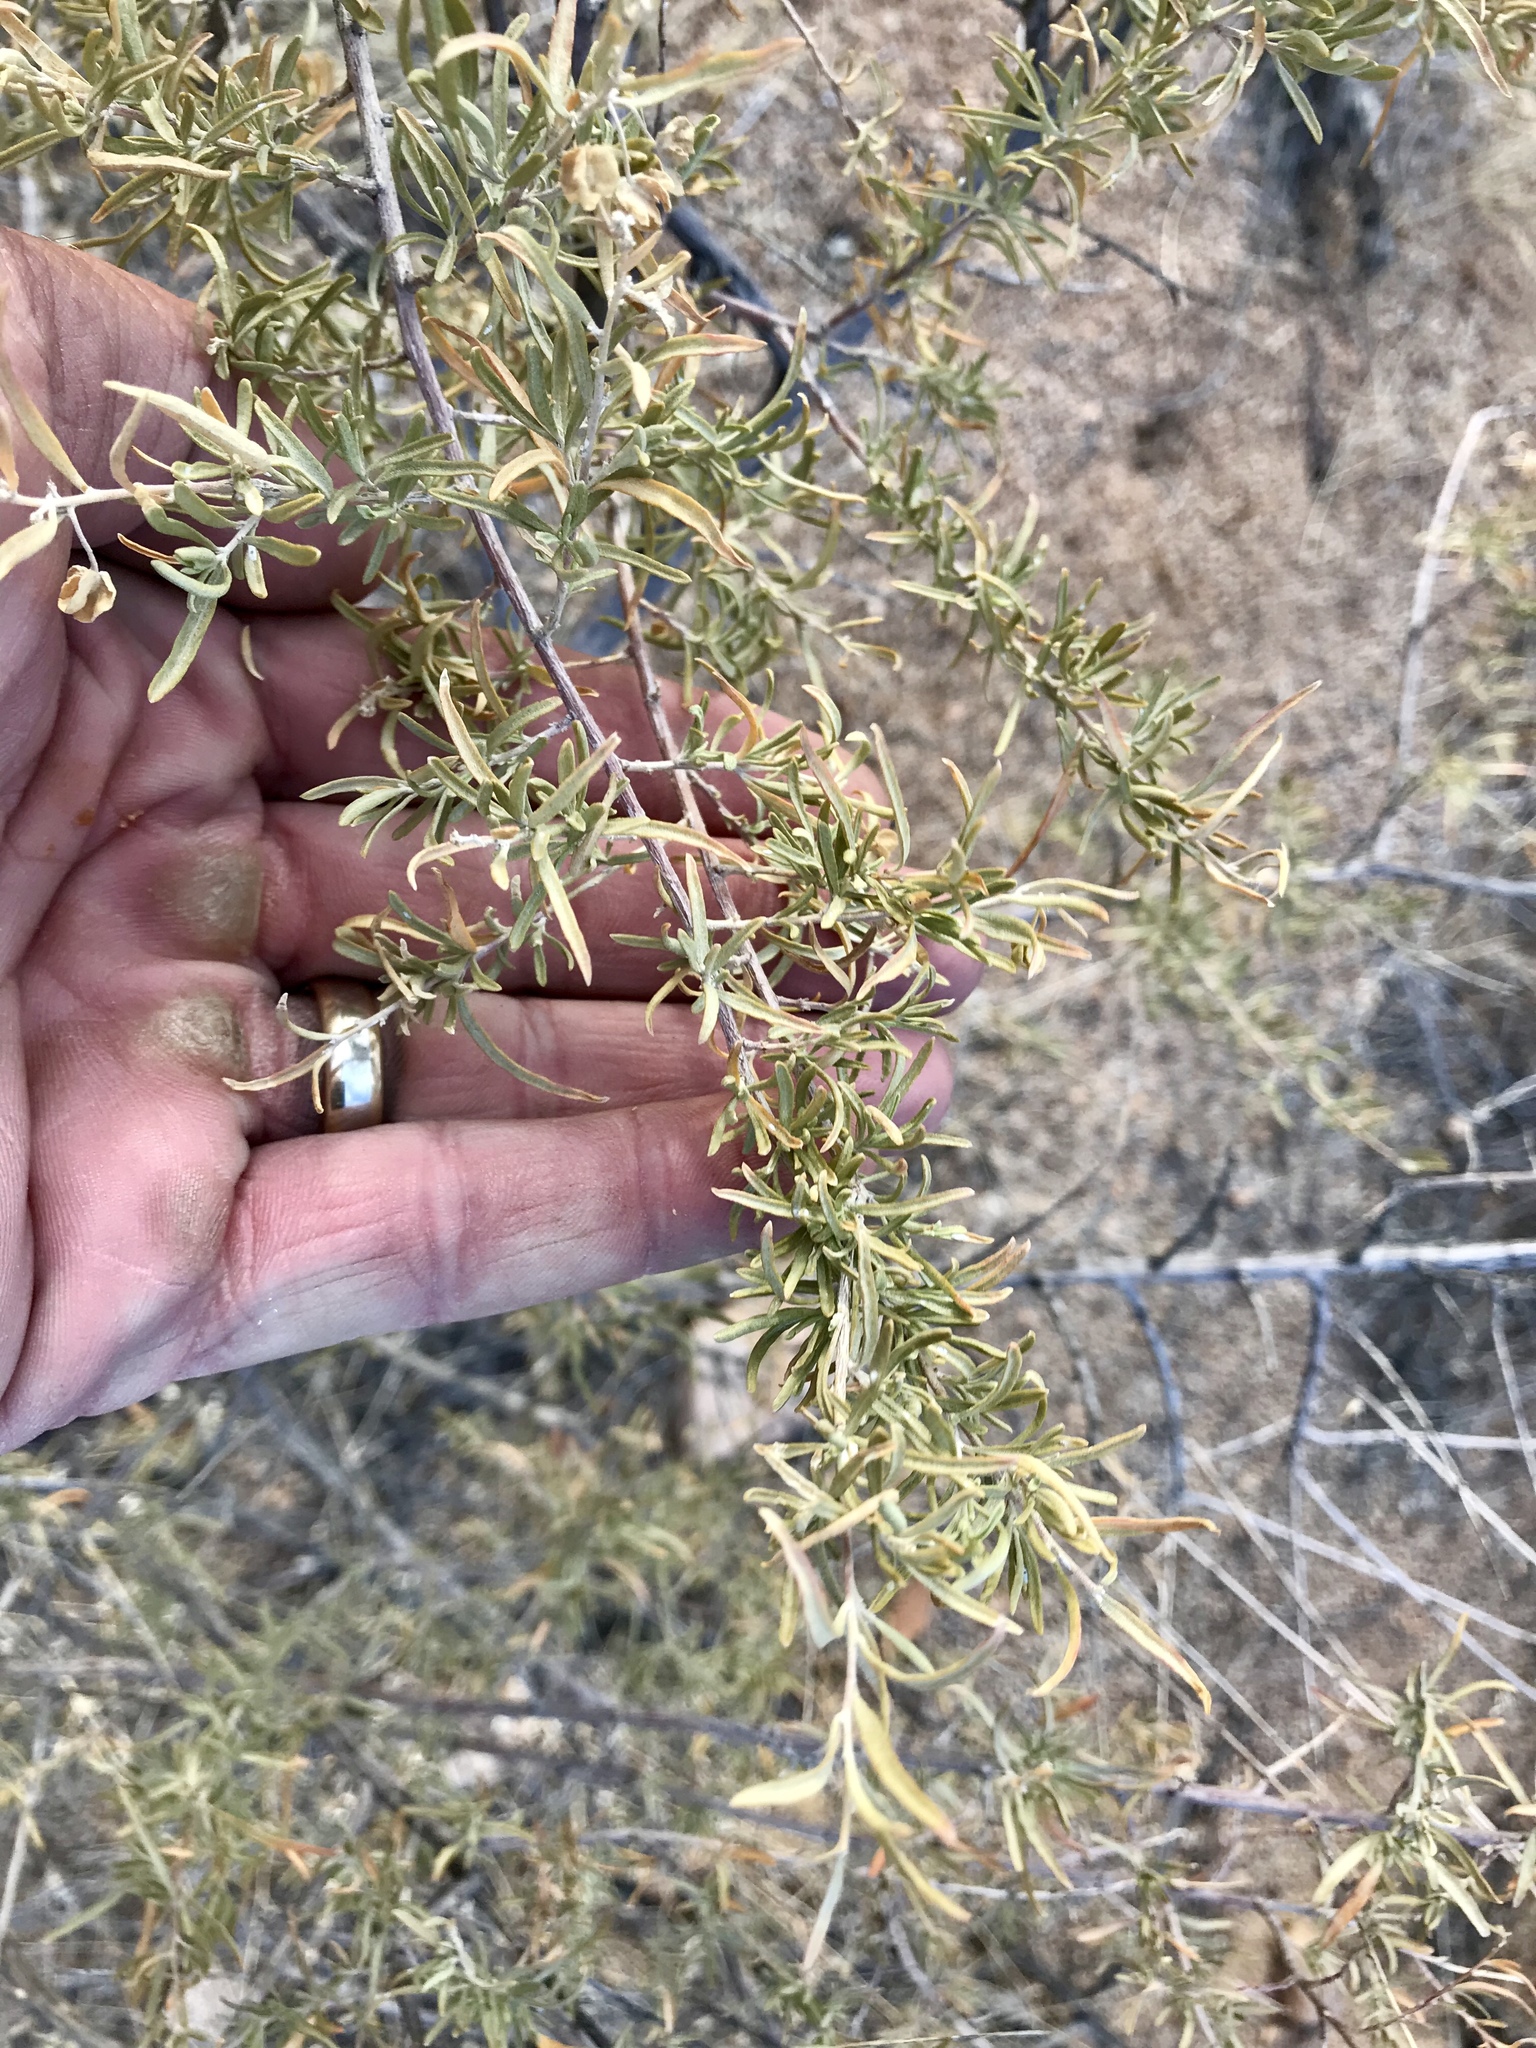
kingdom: Plantae
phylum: Tracheophyta
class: Magnoliopsida
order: Caryophyllales
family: Amaranthaceae
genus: Atriplex
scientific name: Atriplex canescens
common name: Four-wing saltbush
